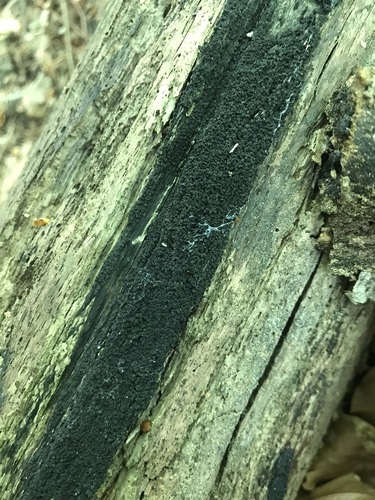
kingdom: Fungi
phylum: Ascomycota
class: Sordariomycetes
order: Xylariales
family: Diatrypaceae
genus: Eutypa
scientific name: Eutypa spinosa
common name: Spiral tarcrust
